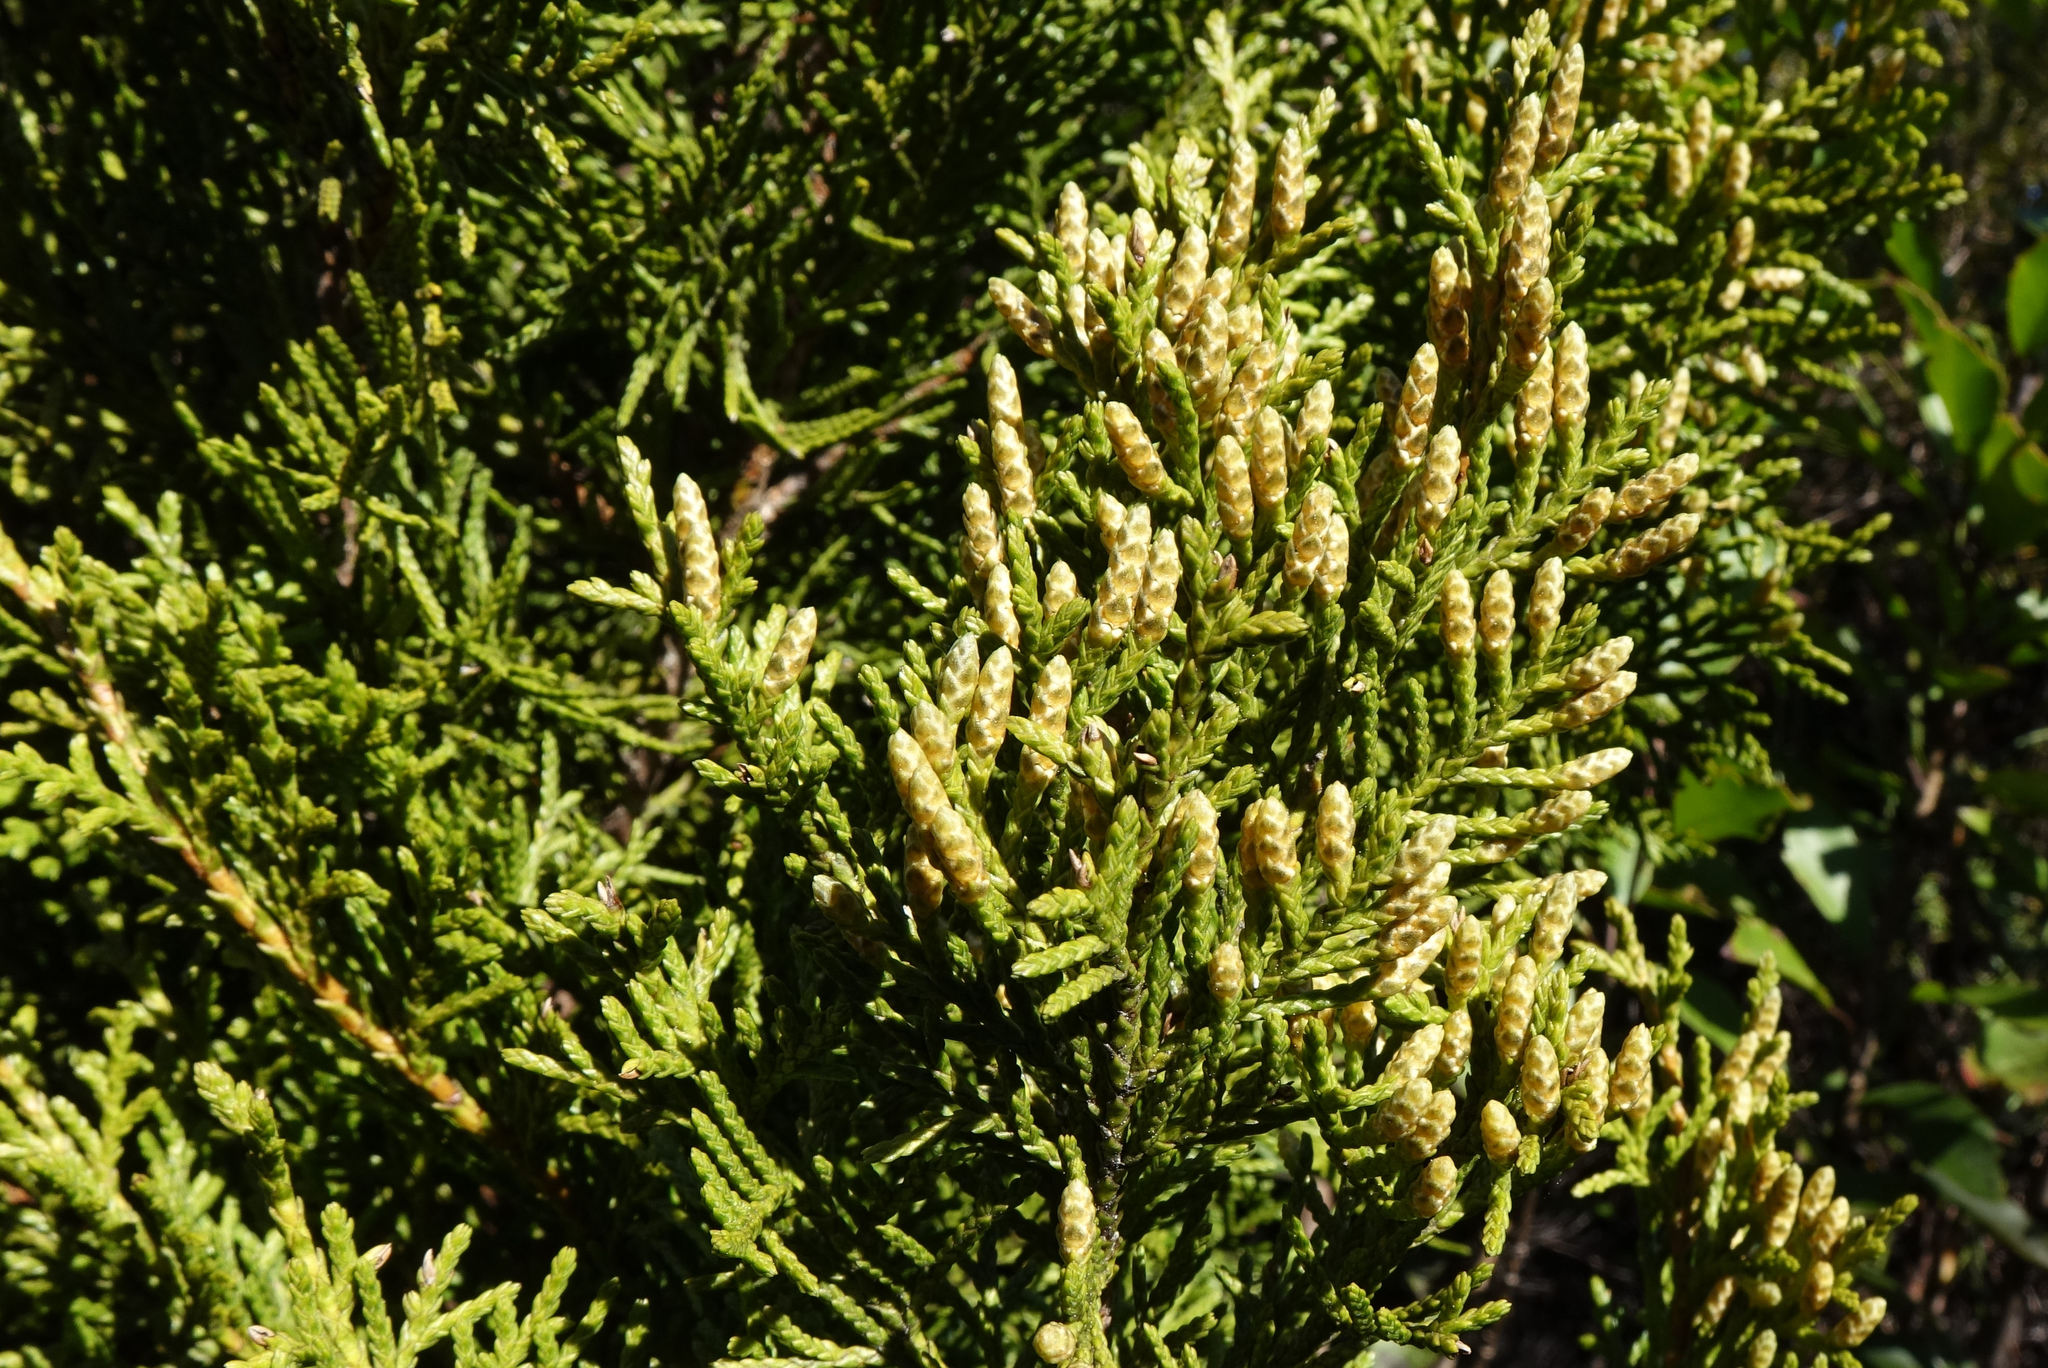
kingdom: Plantae
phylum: Tracheophyta
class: Pinopsida
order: Pinales
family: Cupressaceae
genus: Libocedrus
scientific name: Libocedrus bidwillii
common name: Cedar
